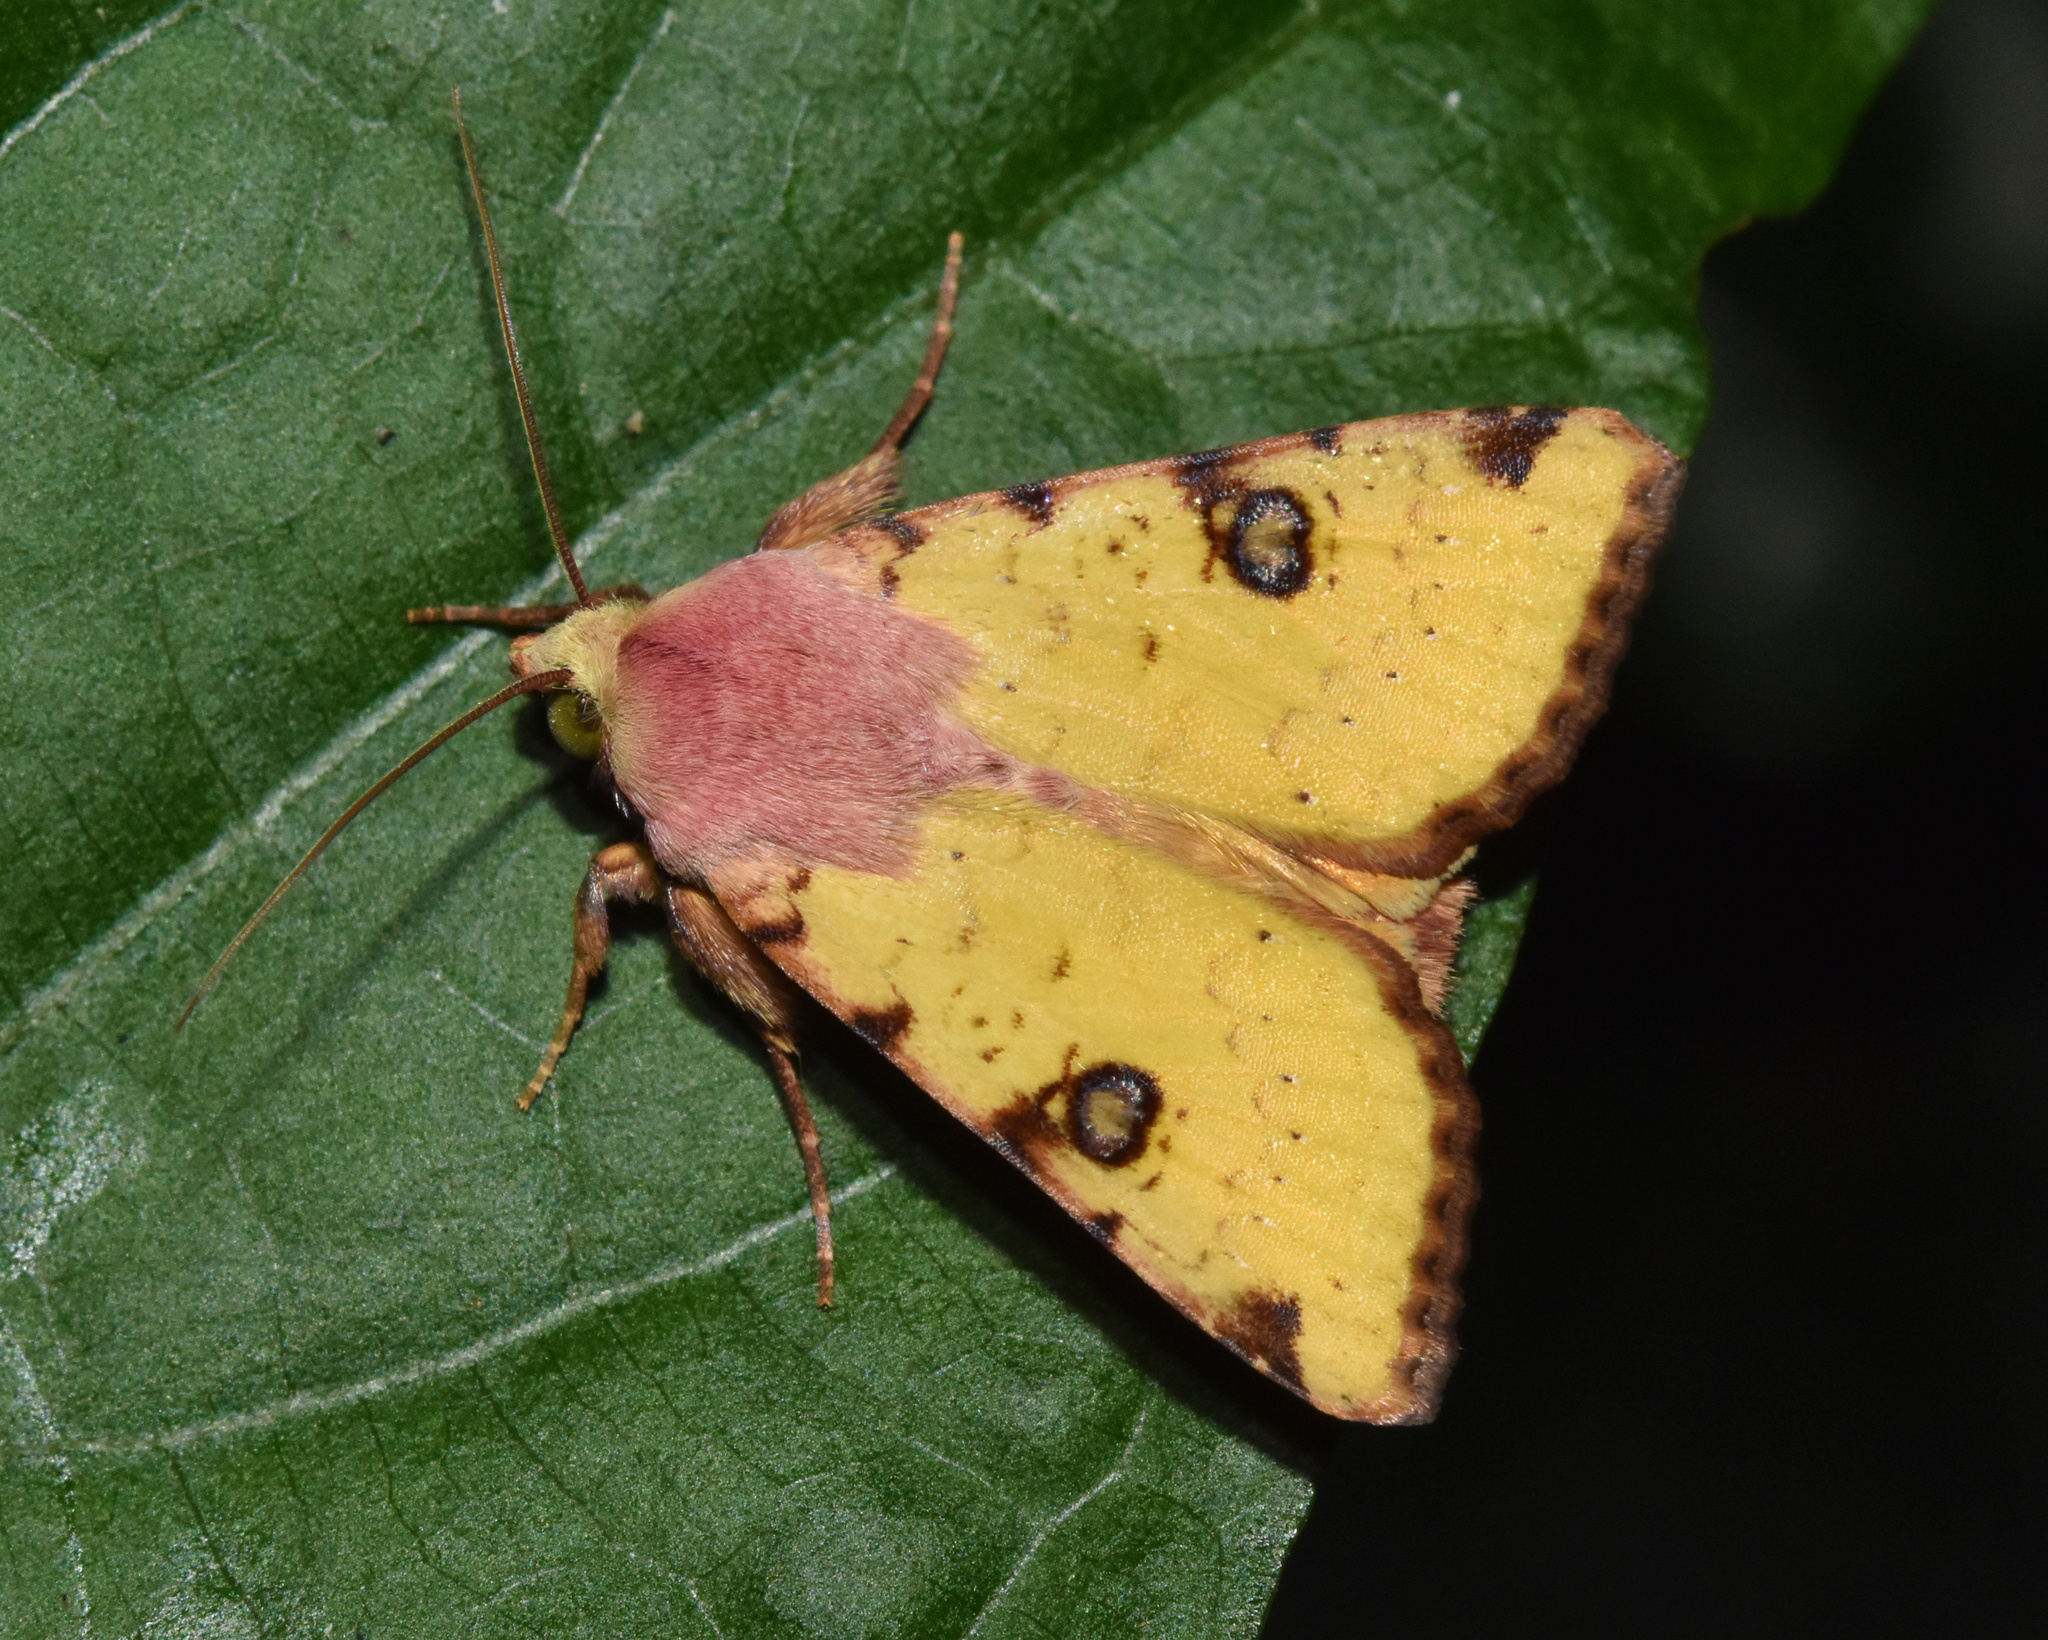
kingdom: Animalia
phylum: Arthropoda
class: Insecta
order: Lepidoptera
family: Noctuidae
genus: Heliothis
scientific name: Heliothis flavigera
